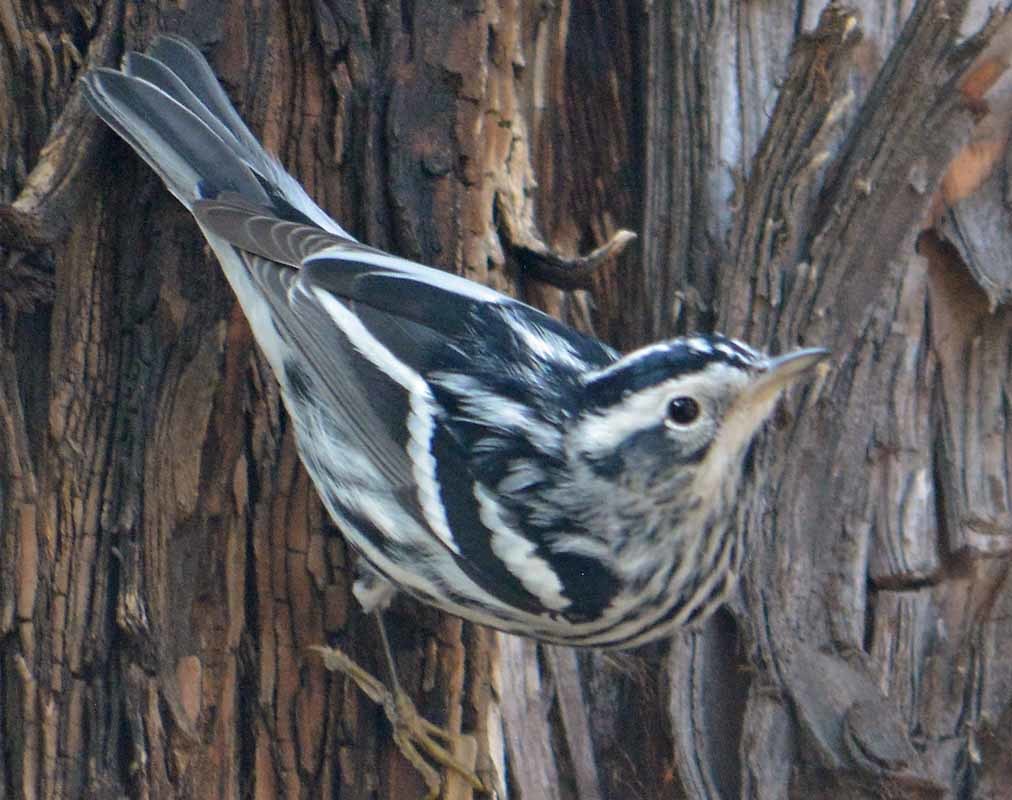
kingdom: Animalia
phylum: Chordata
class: Aves
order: Passeriformes
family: Parulidae
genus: Mniotilta
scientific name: Mniotilta varia
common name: Black-and-white warbler
